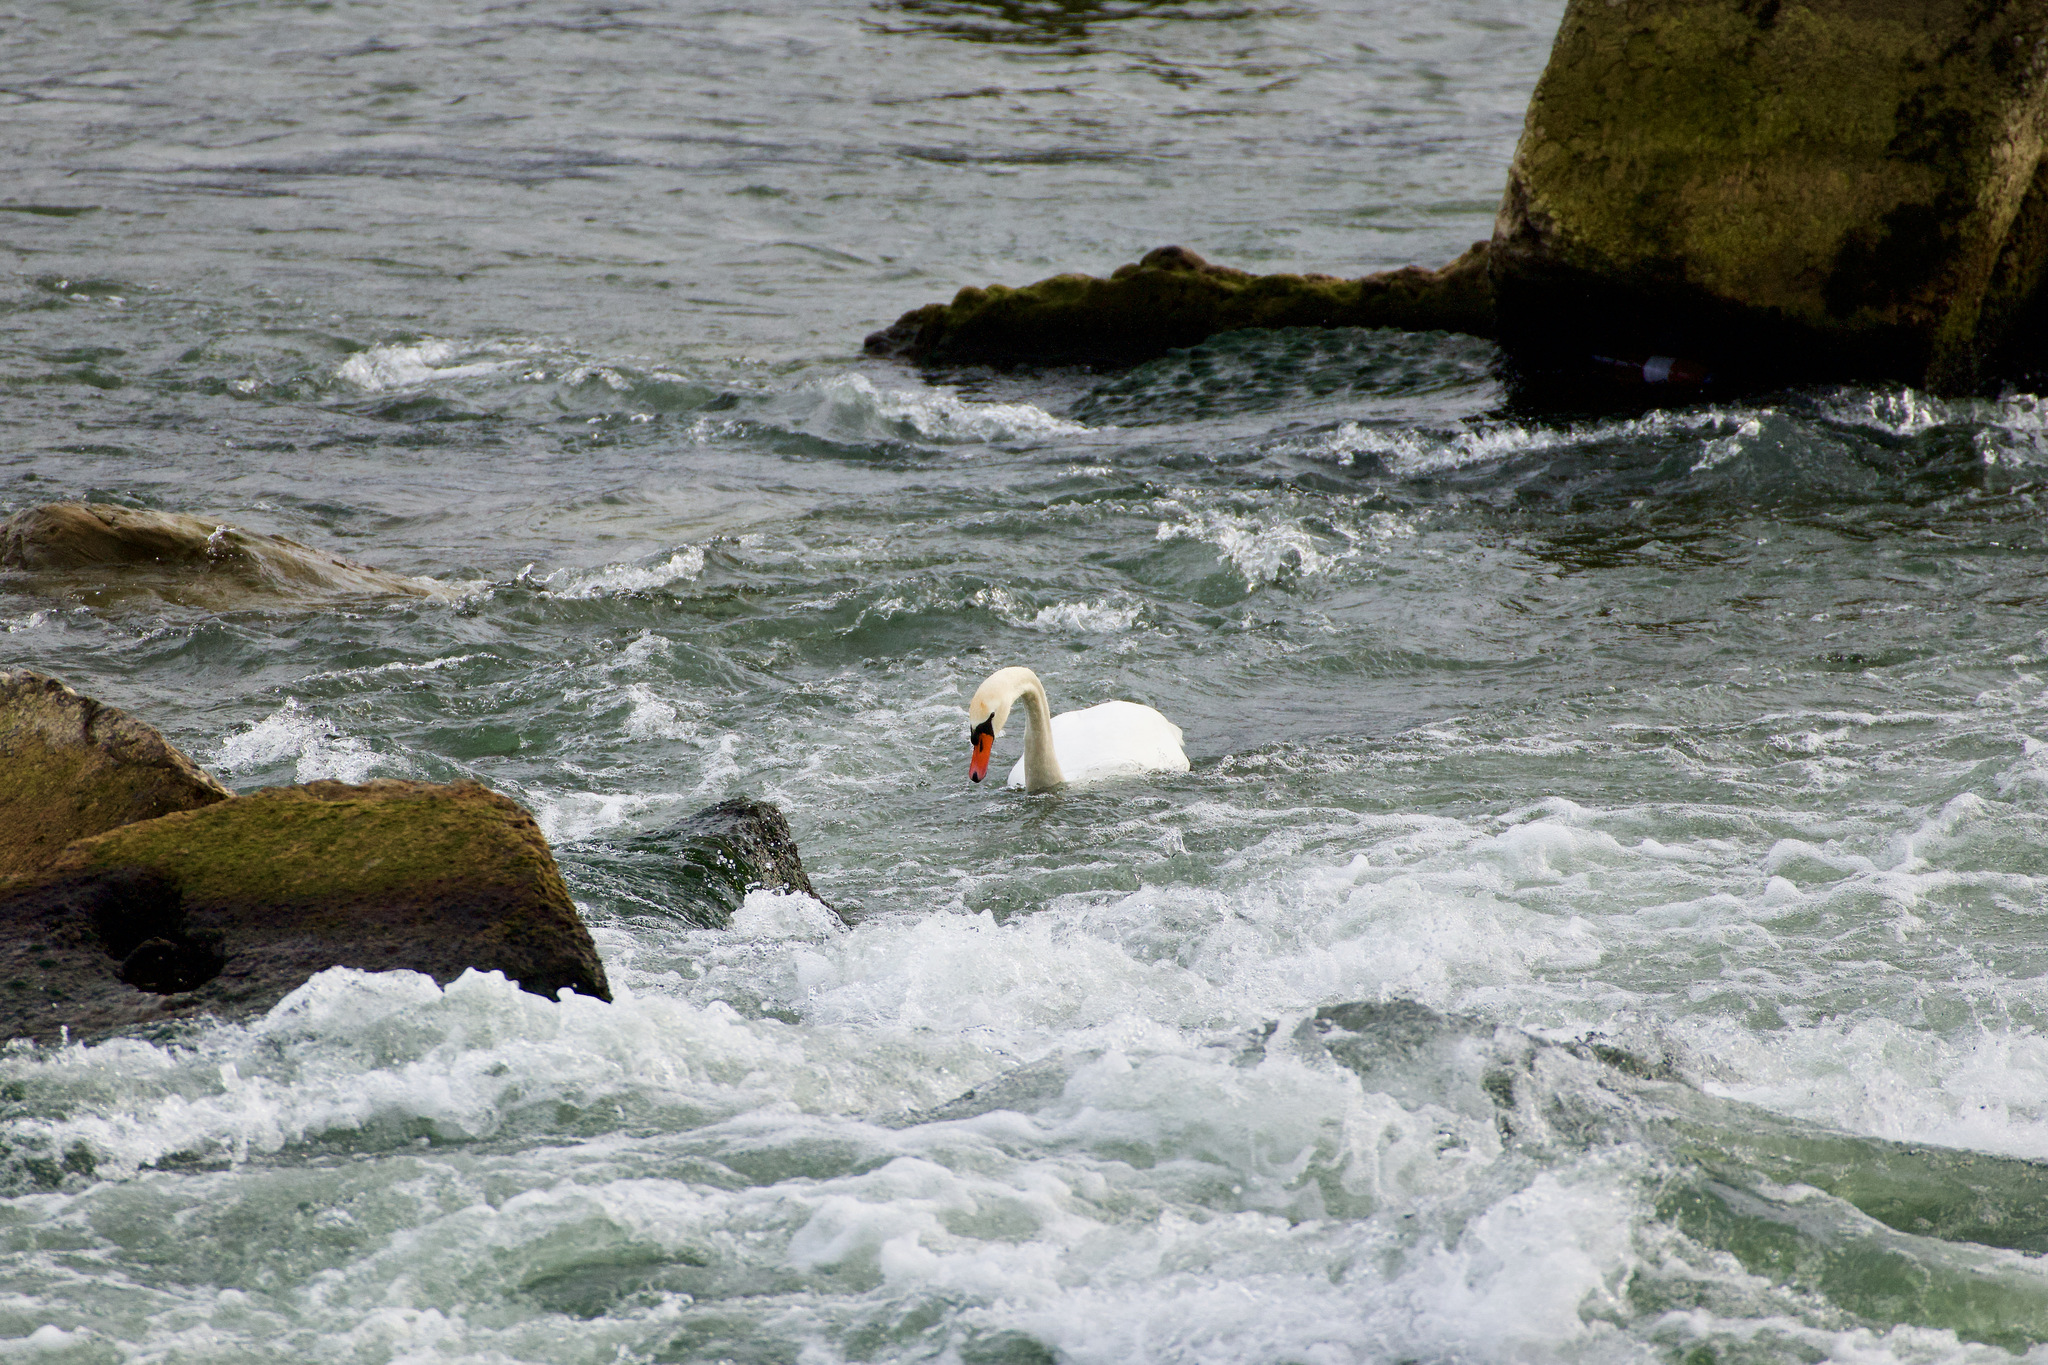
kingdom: Animalia
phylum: Chordata
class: Aves
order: Anseriformes
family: Anatidae
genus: Cygnus
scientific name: Cygnus olor
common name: Mute swan
